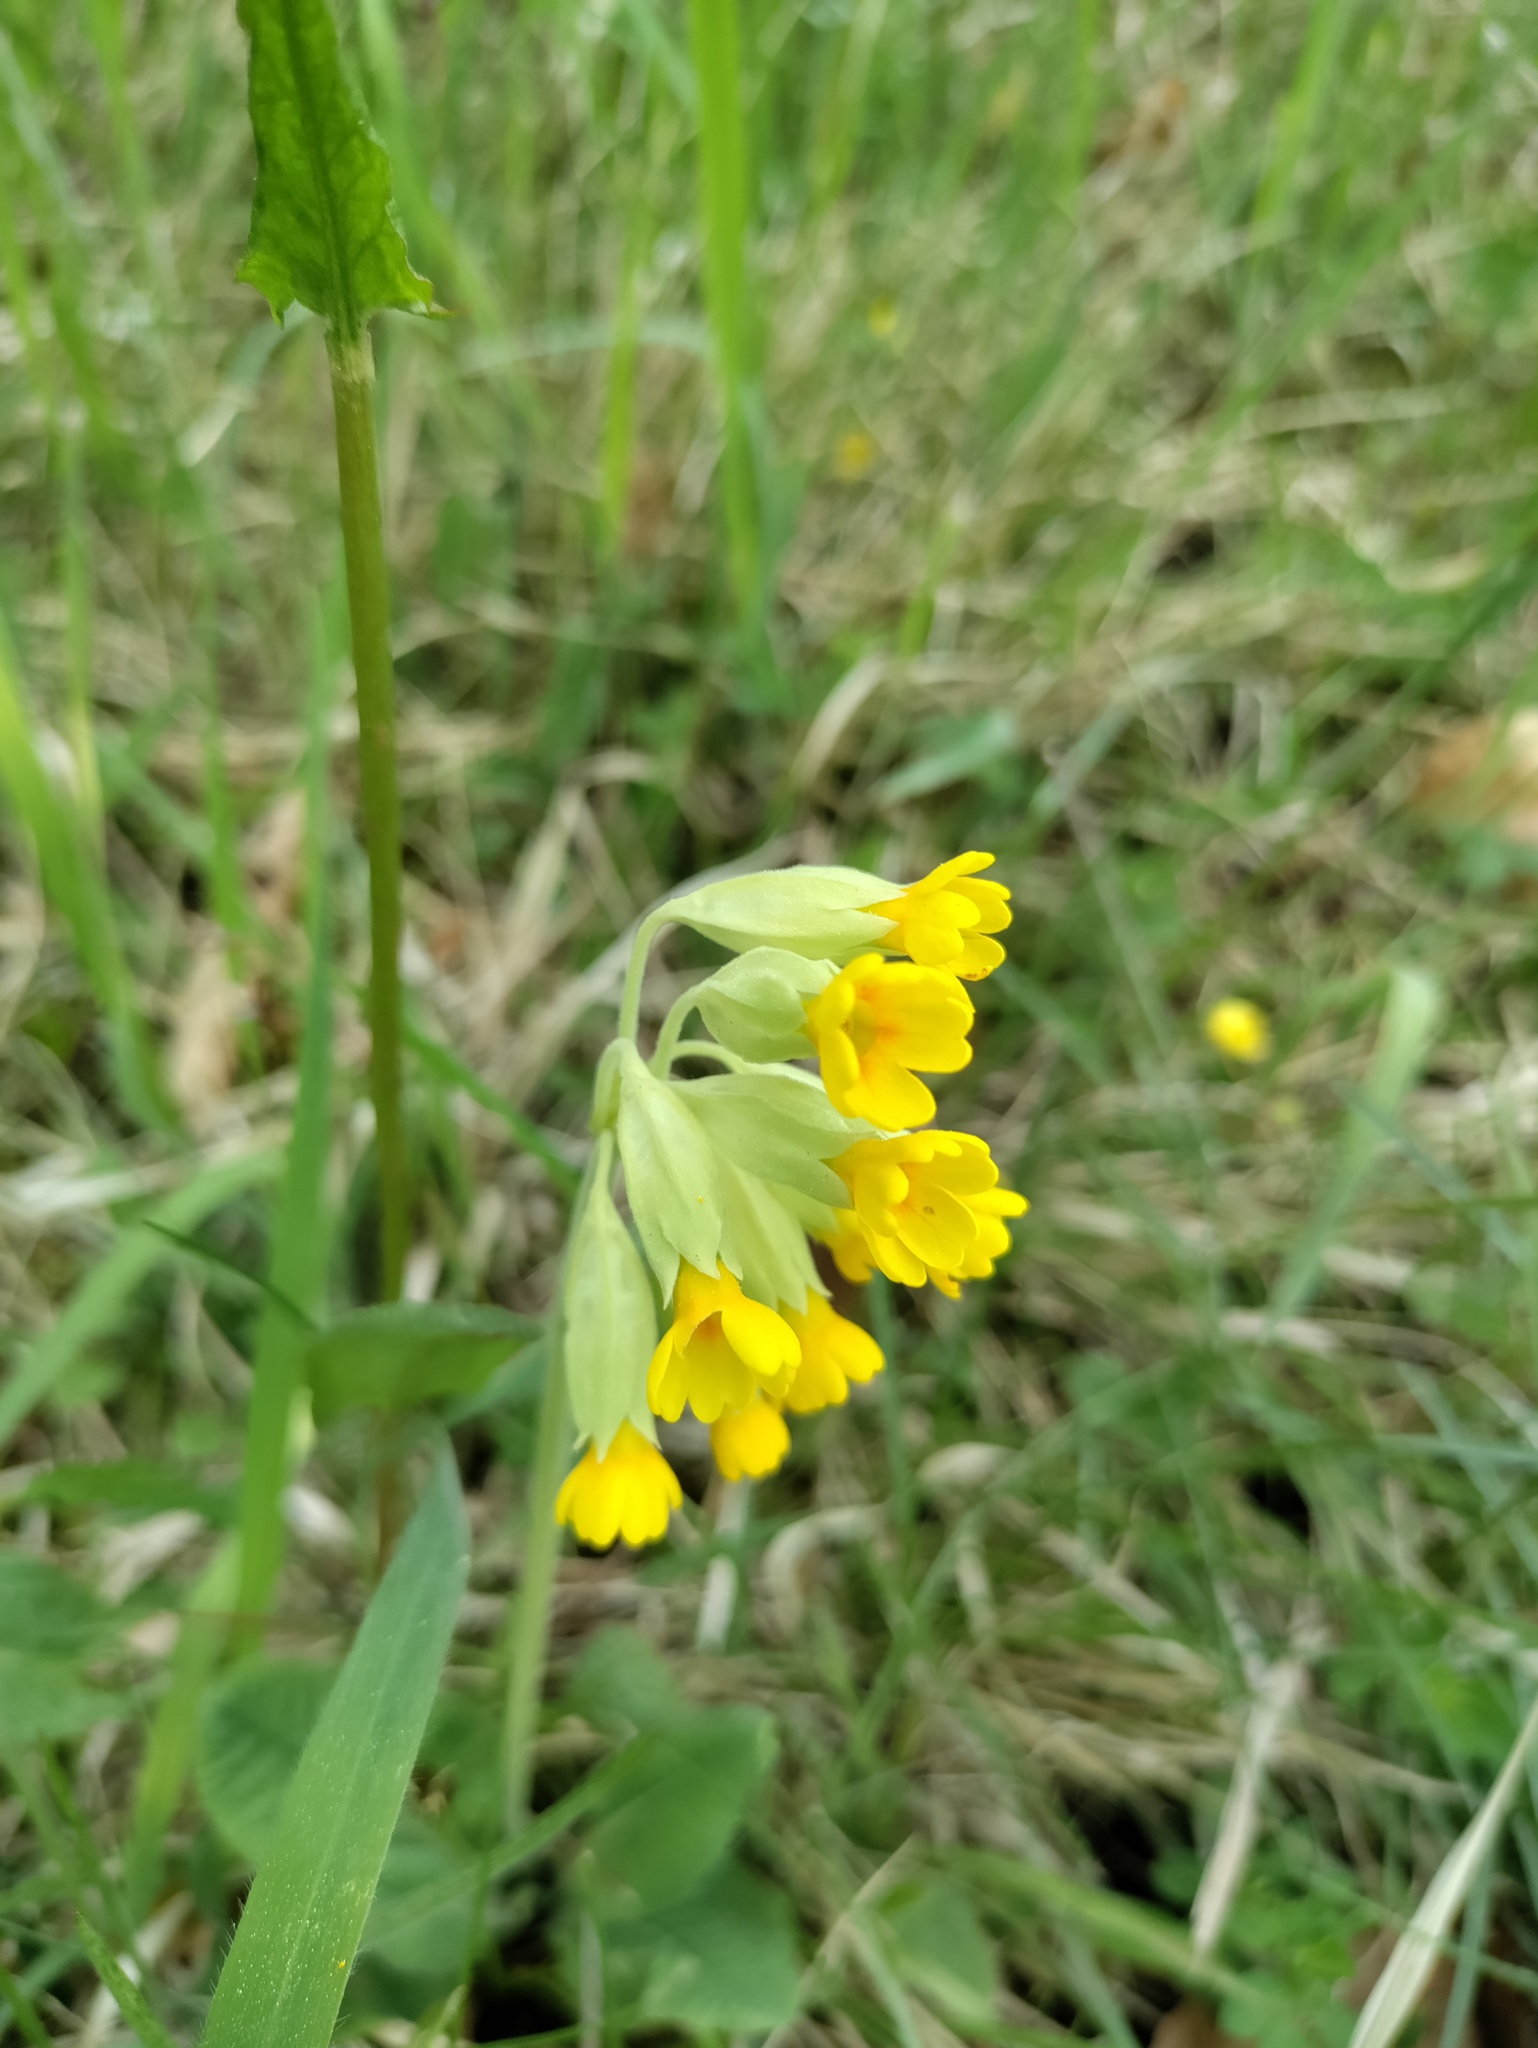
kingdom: Plantae
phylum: Tracheophyta
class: Magnoliopsida
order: Ericales
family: Primulaceae
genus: Primula
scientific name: Primula veris
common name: Cowslip
